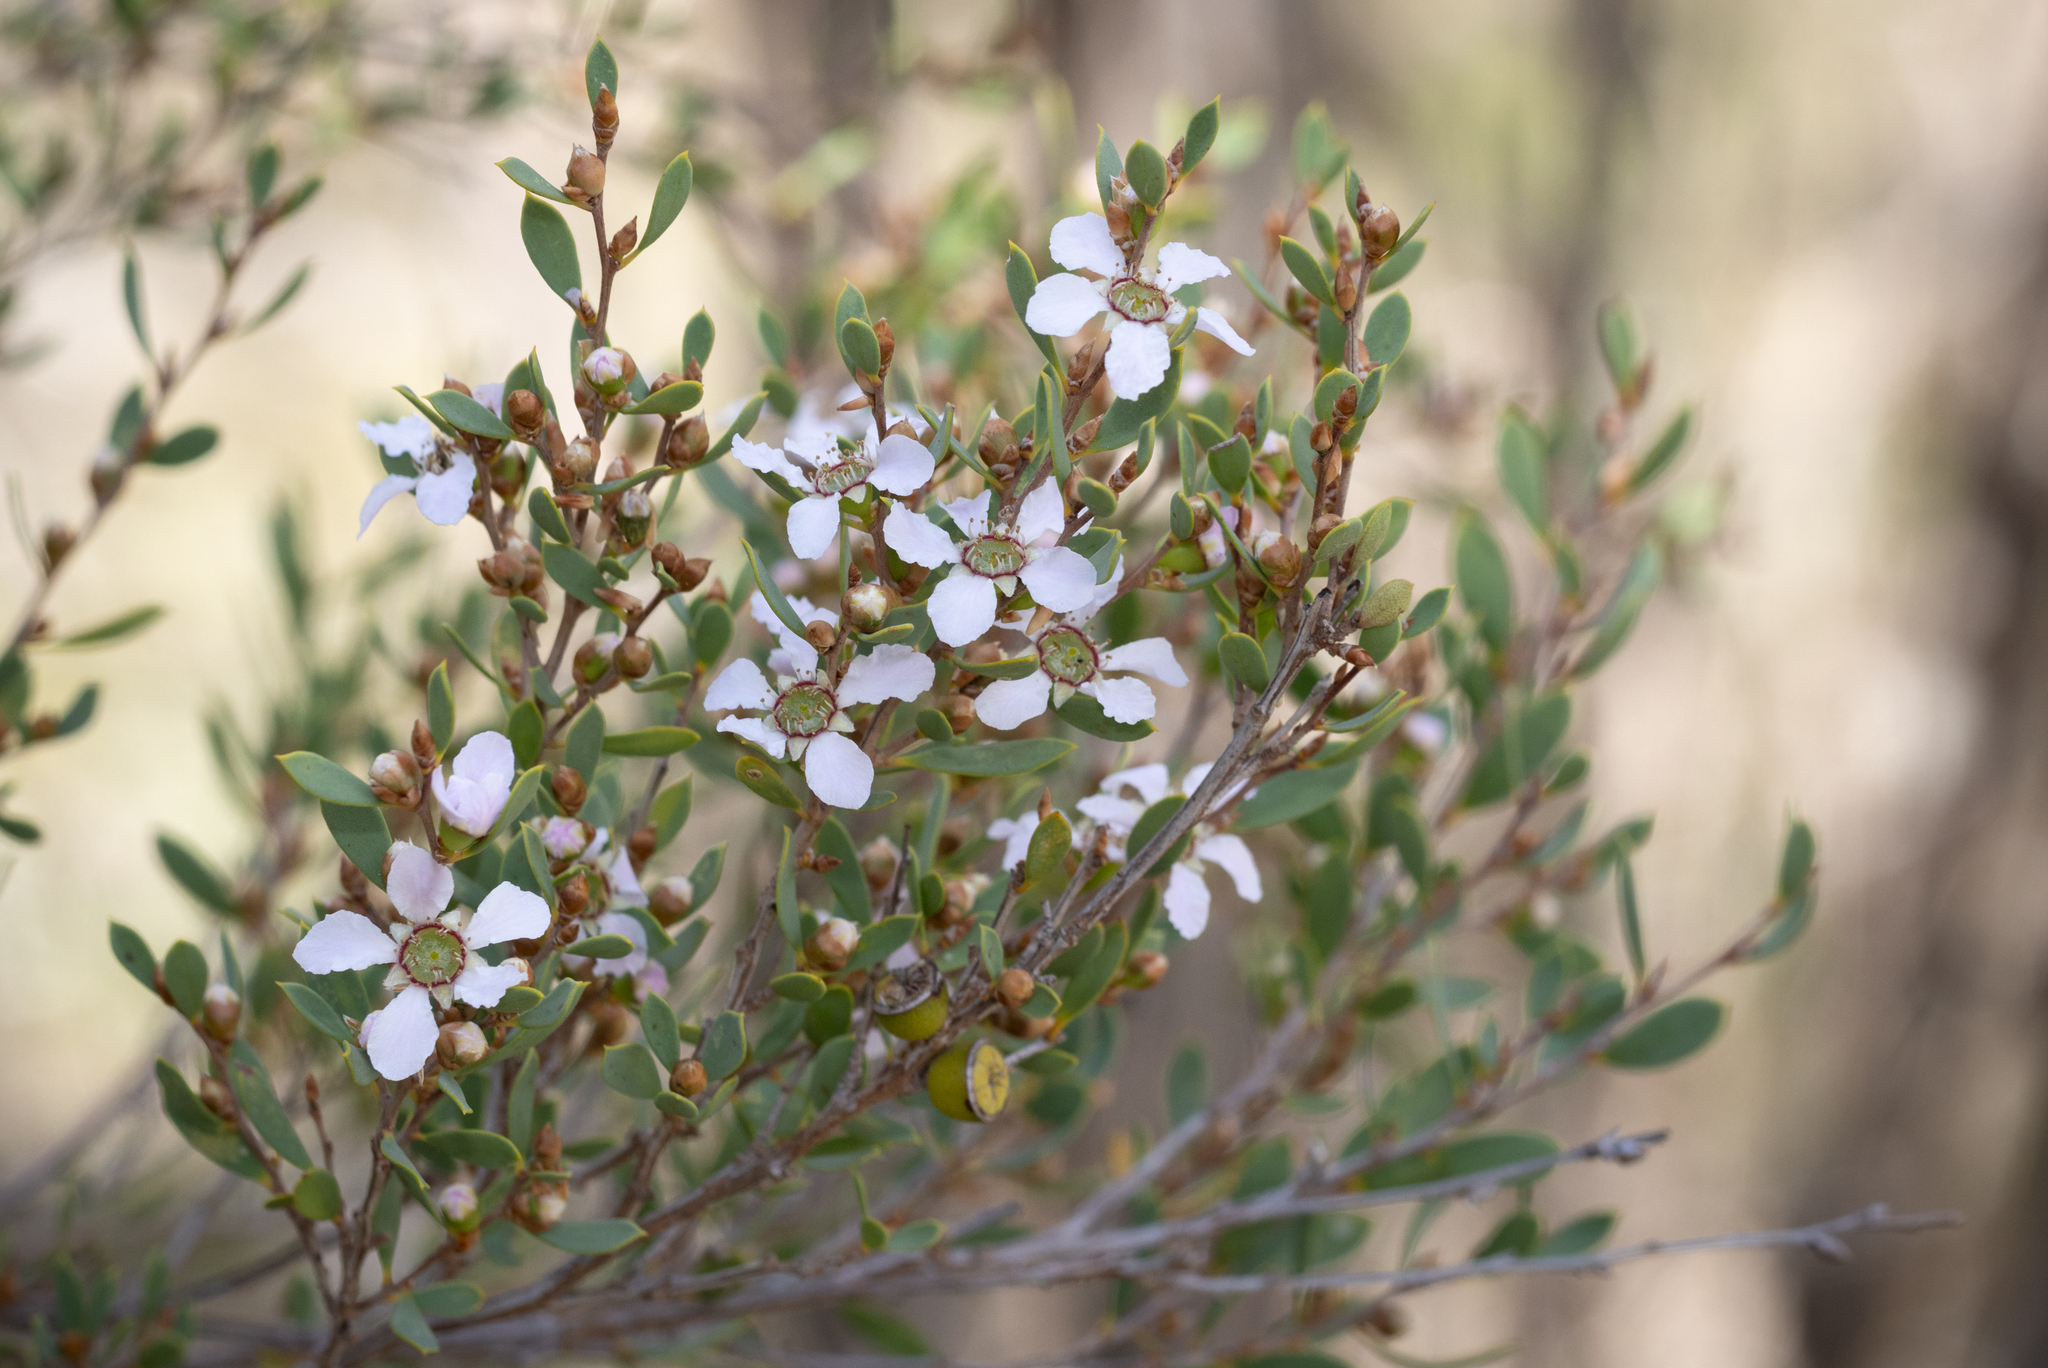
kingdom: Plantae
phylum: Tracheophyta
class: Magnoliopsida
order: Myrtales
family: Myrtaceae
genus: Leptospermum
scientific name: Leptospermum coriaceum
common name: Mallee teatree
